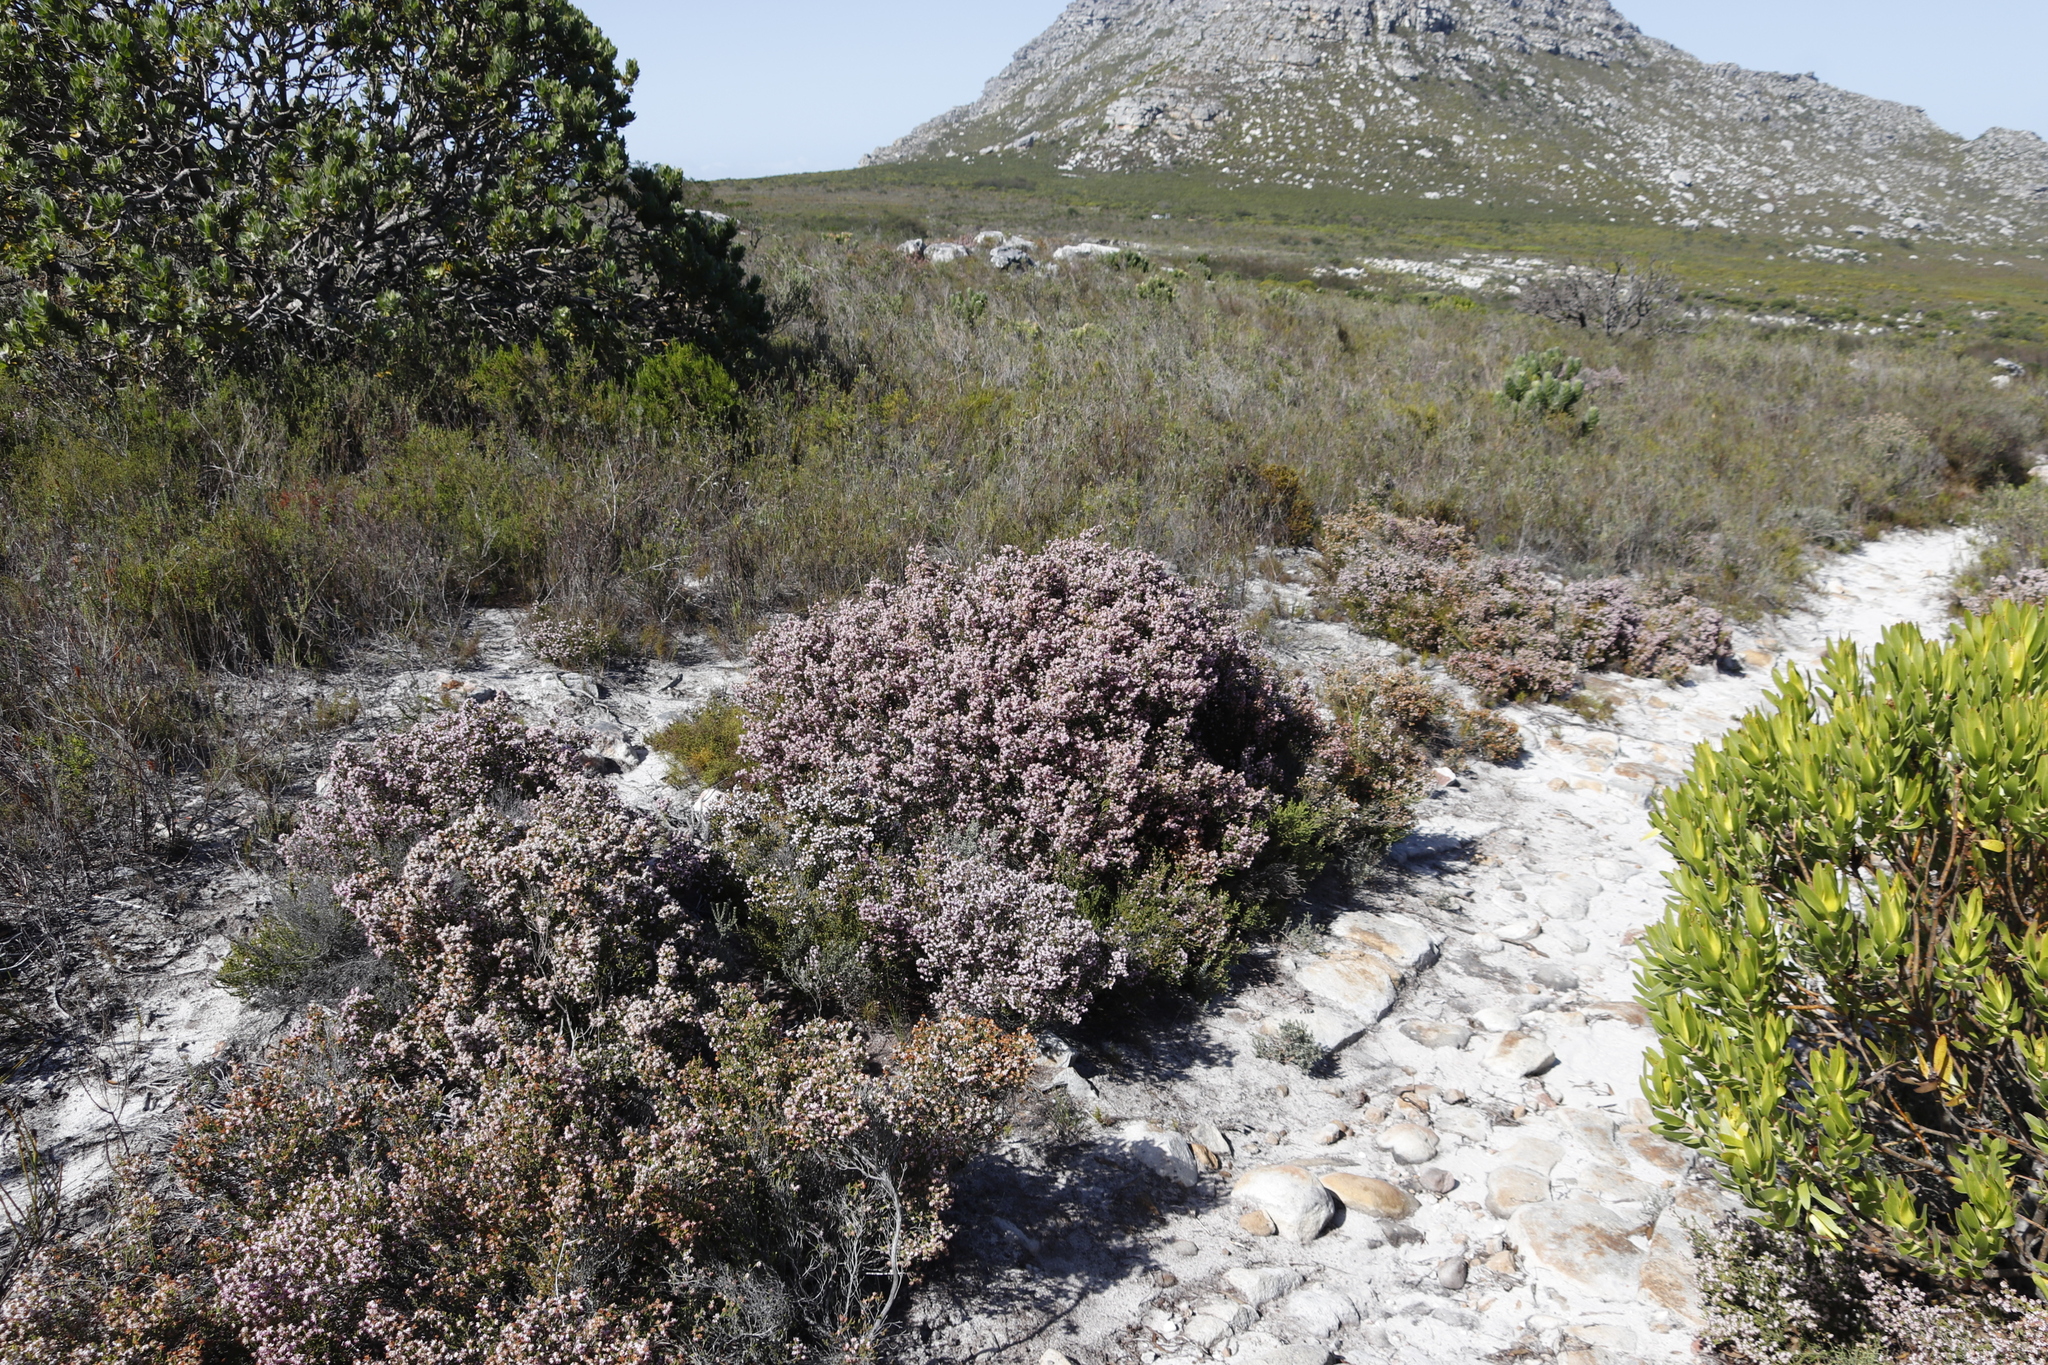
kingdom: Plantae
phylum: Tracheophyta
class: Magnoliopsida
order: Ericales
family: Ericaceae
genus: Erica
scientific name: Erica ericoides
